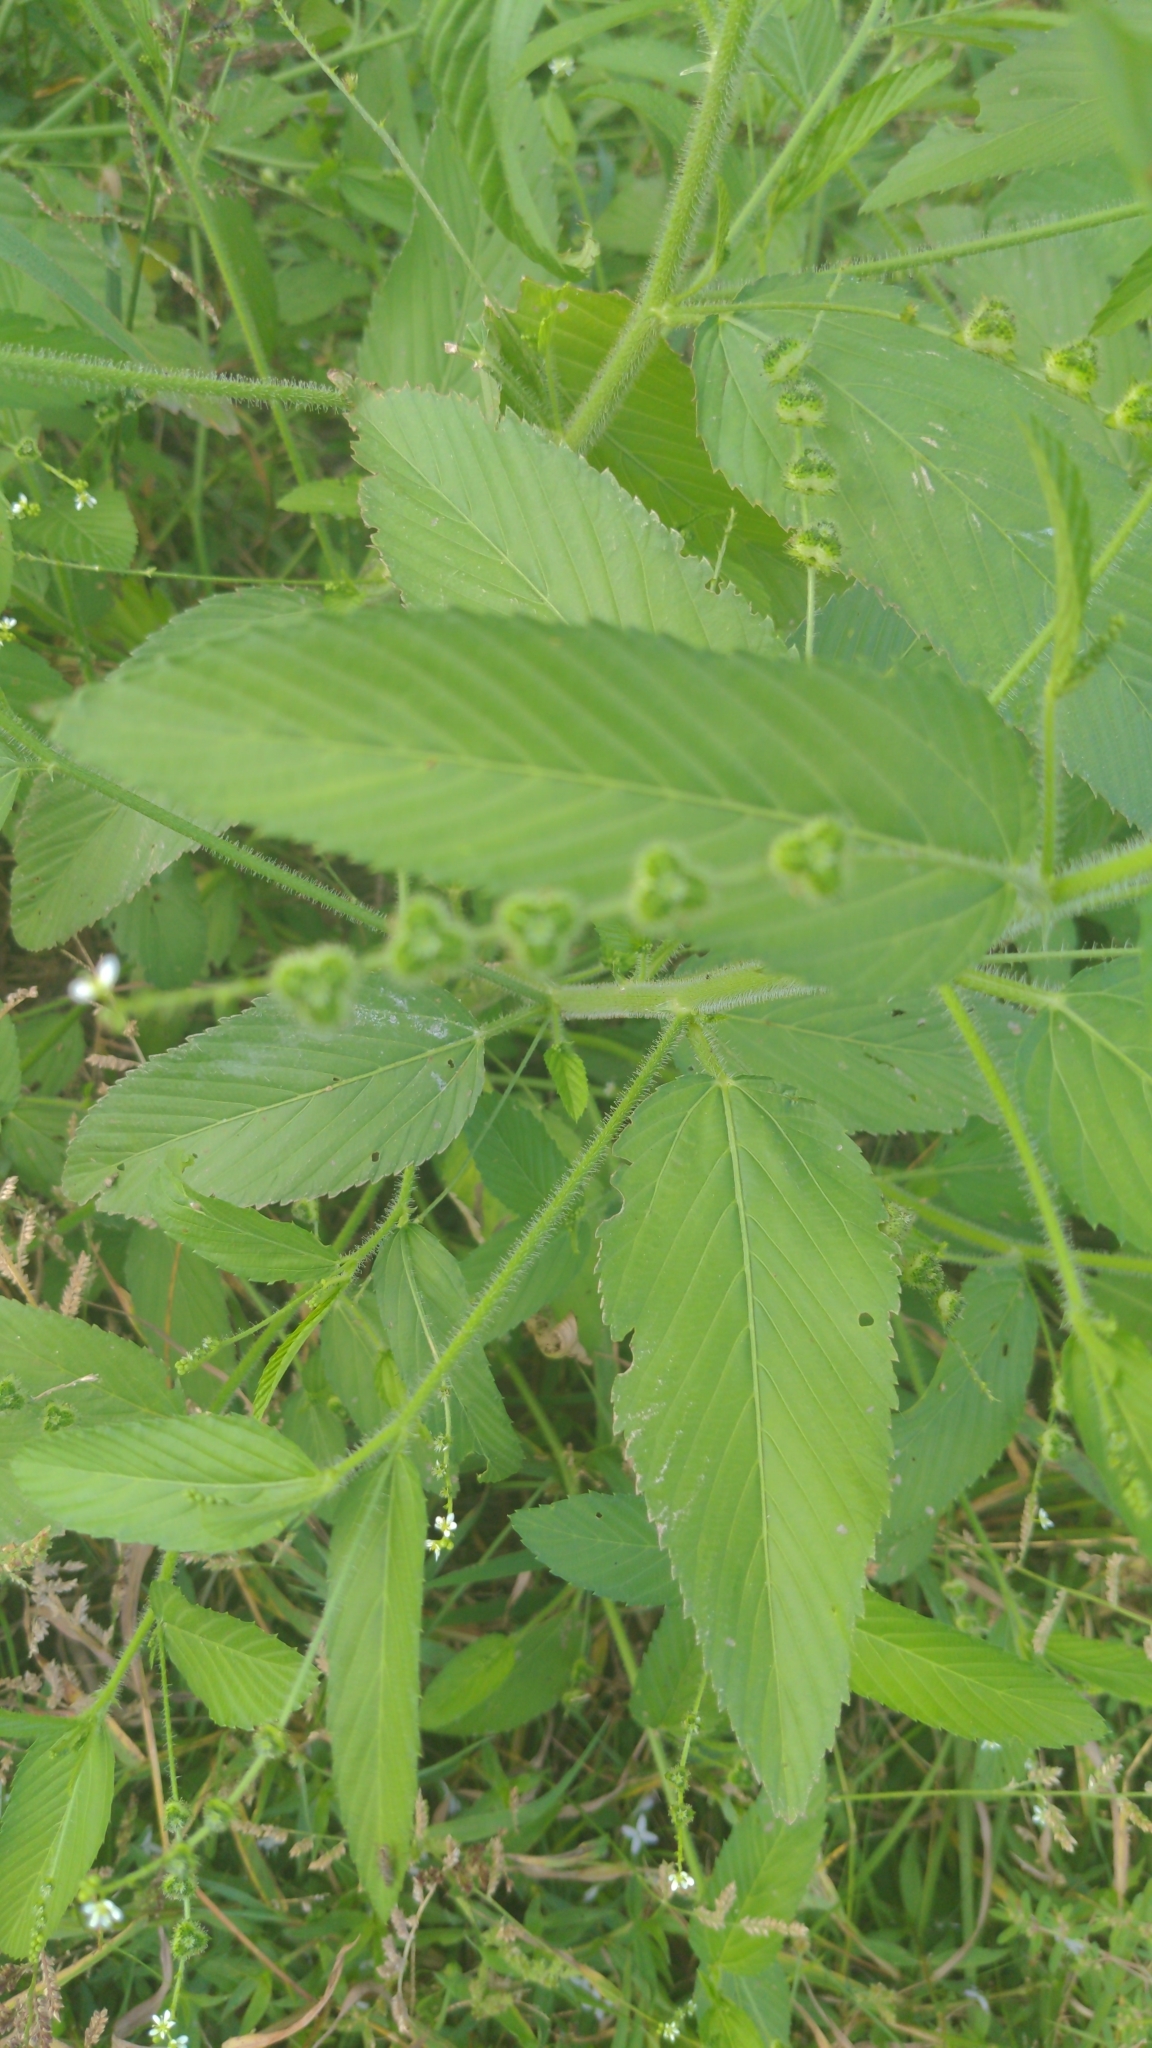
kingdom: Plantae
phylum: Tracheophyta
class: Magnoliopsida
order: Malpighiales
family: Euphorbiaceae
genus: Caperonia
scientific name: Caperonia palustris
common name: Sacatrapo
